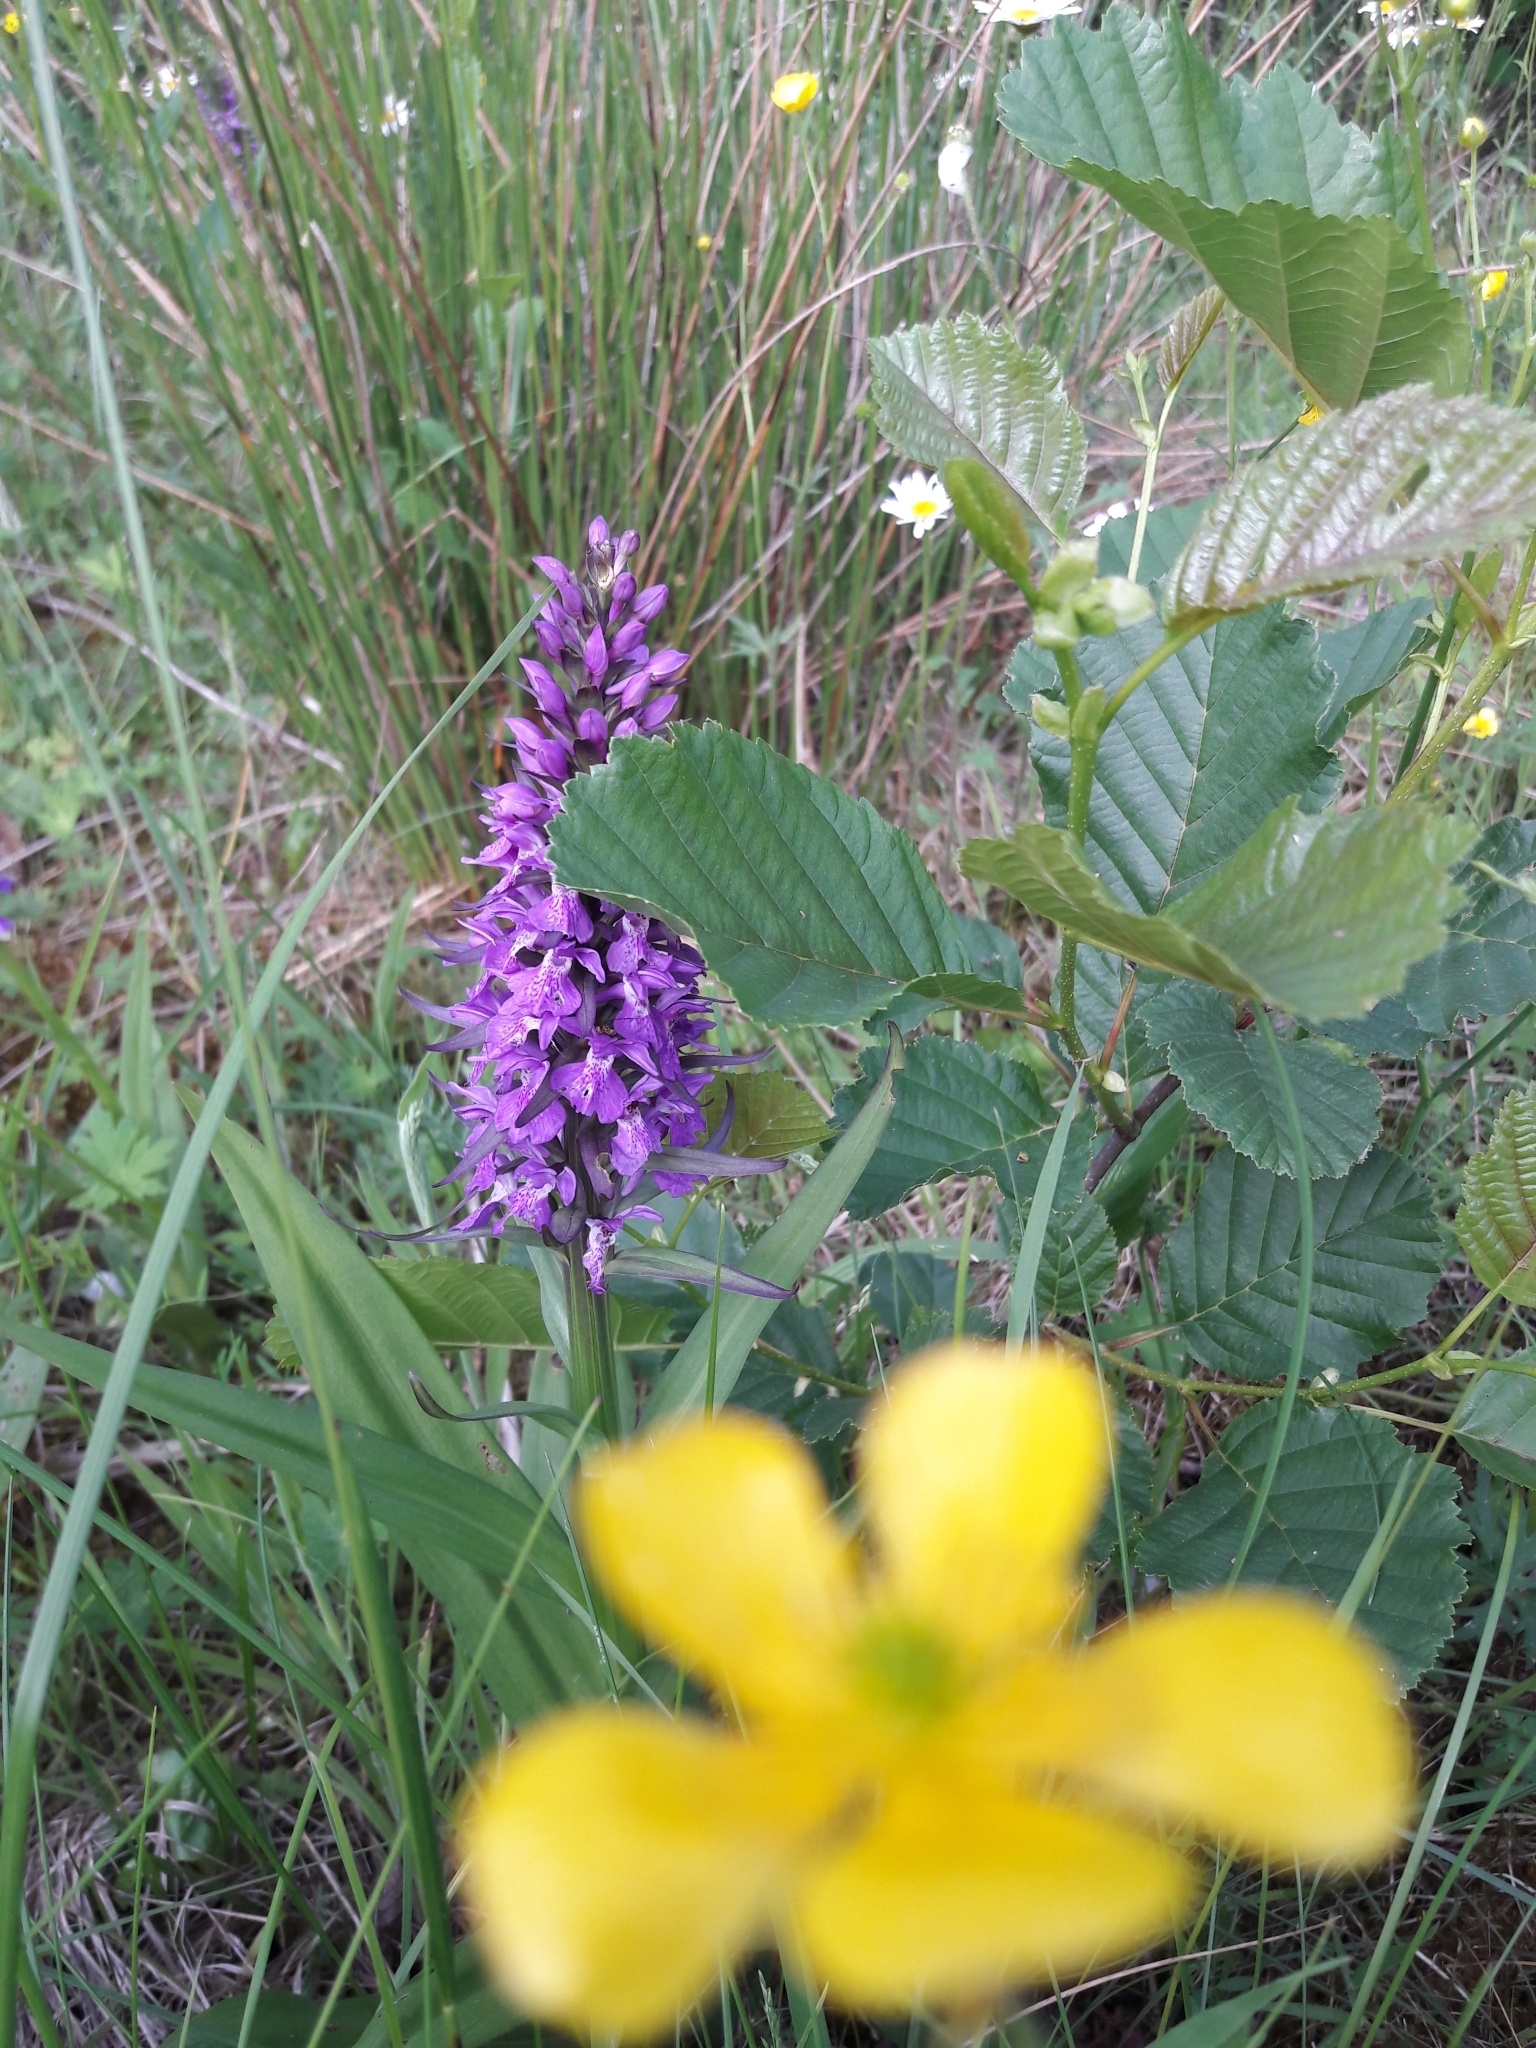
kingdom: Plantae
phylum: Tracheophyta
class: Liliopsida
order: Asparagales
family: Orchidaceae
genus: Dactylorhiza
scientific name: Dactylorhiza majalis
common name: Marsh orchid
